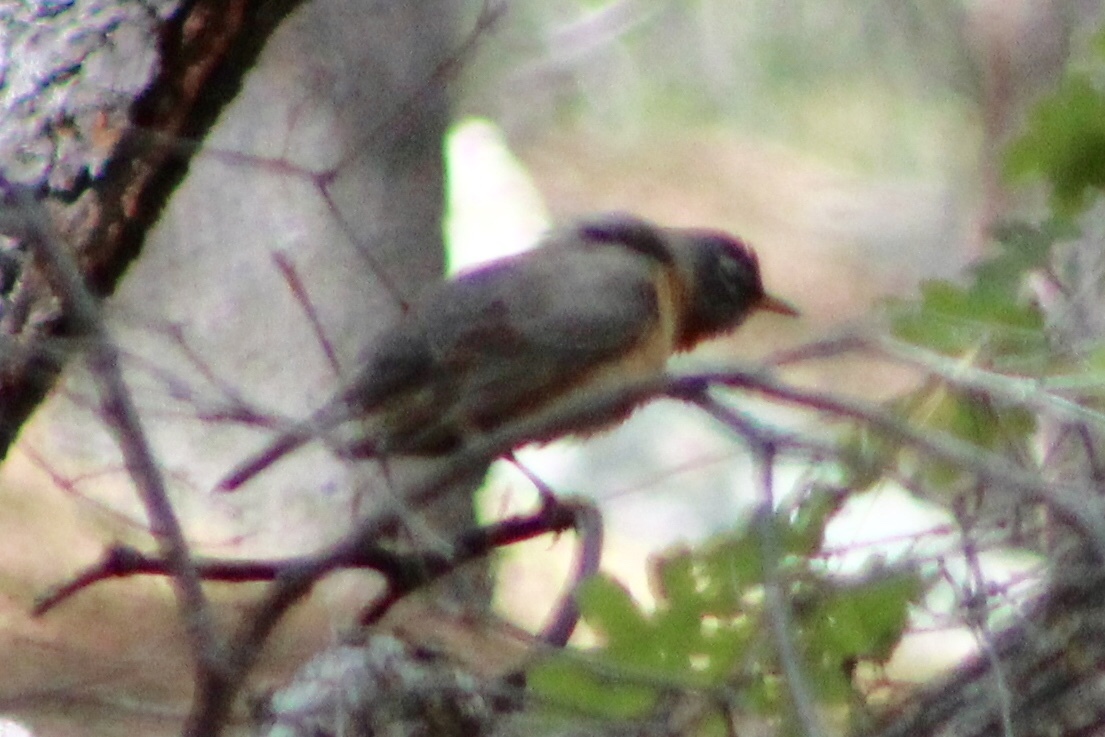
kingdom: Animalia
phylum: Chordata
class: Aves
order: Passeriformes
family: Turdidae
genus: Turdus
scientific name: Turdus migratorius
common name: American robin
